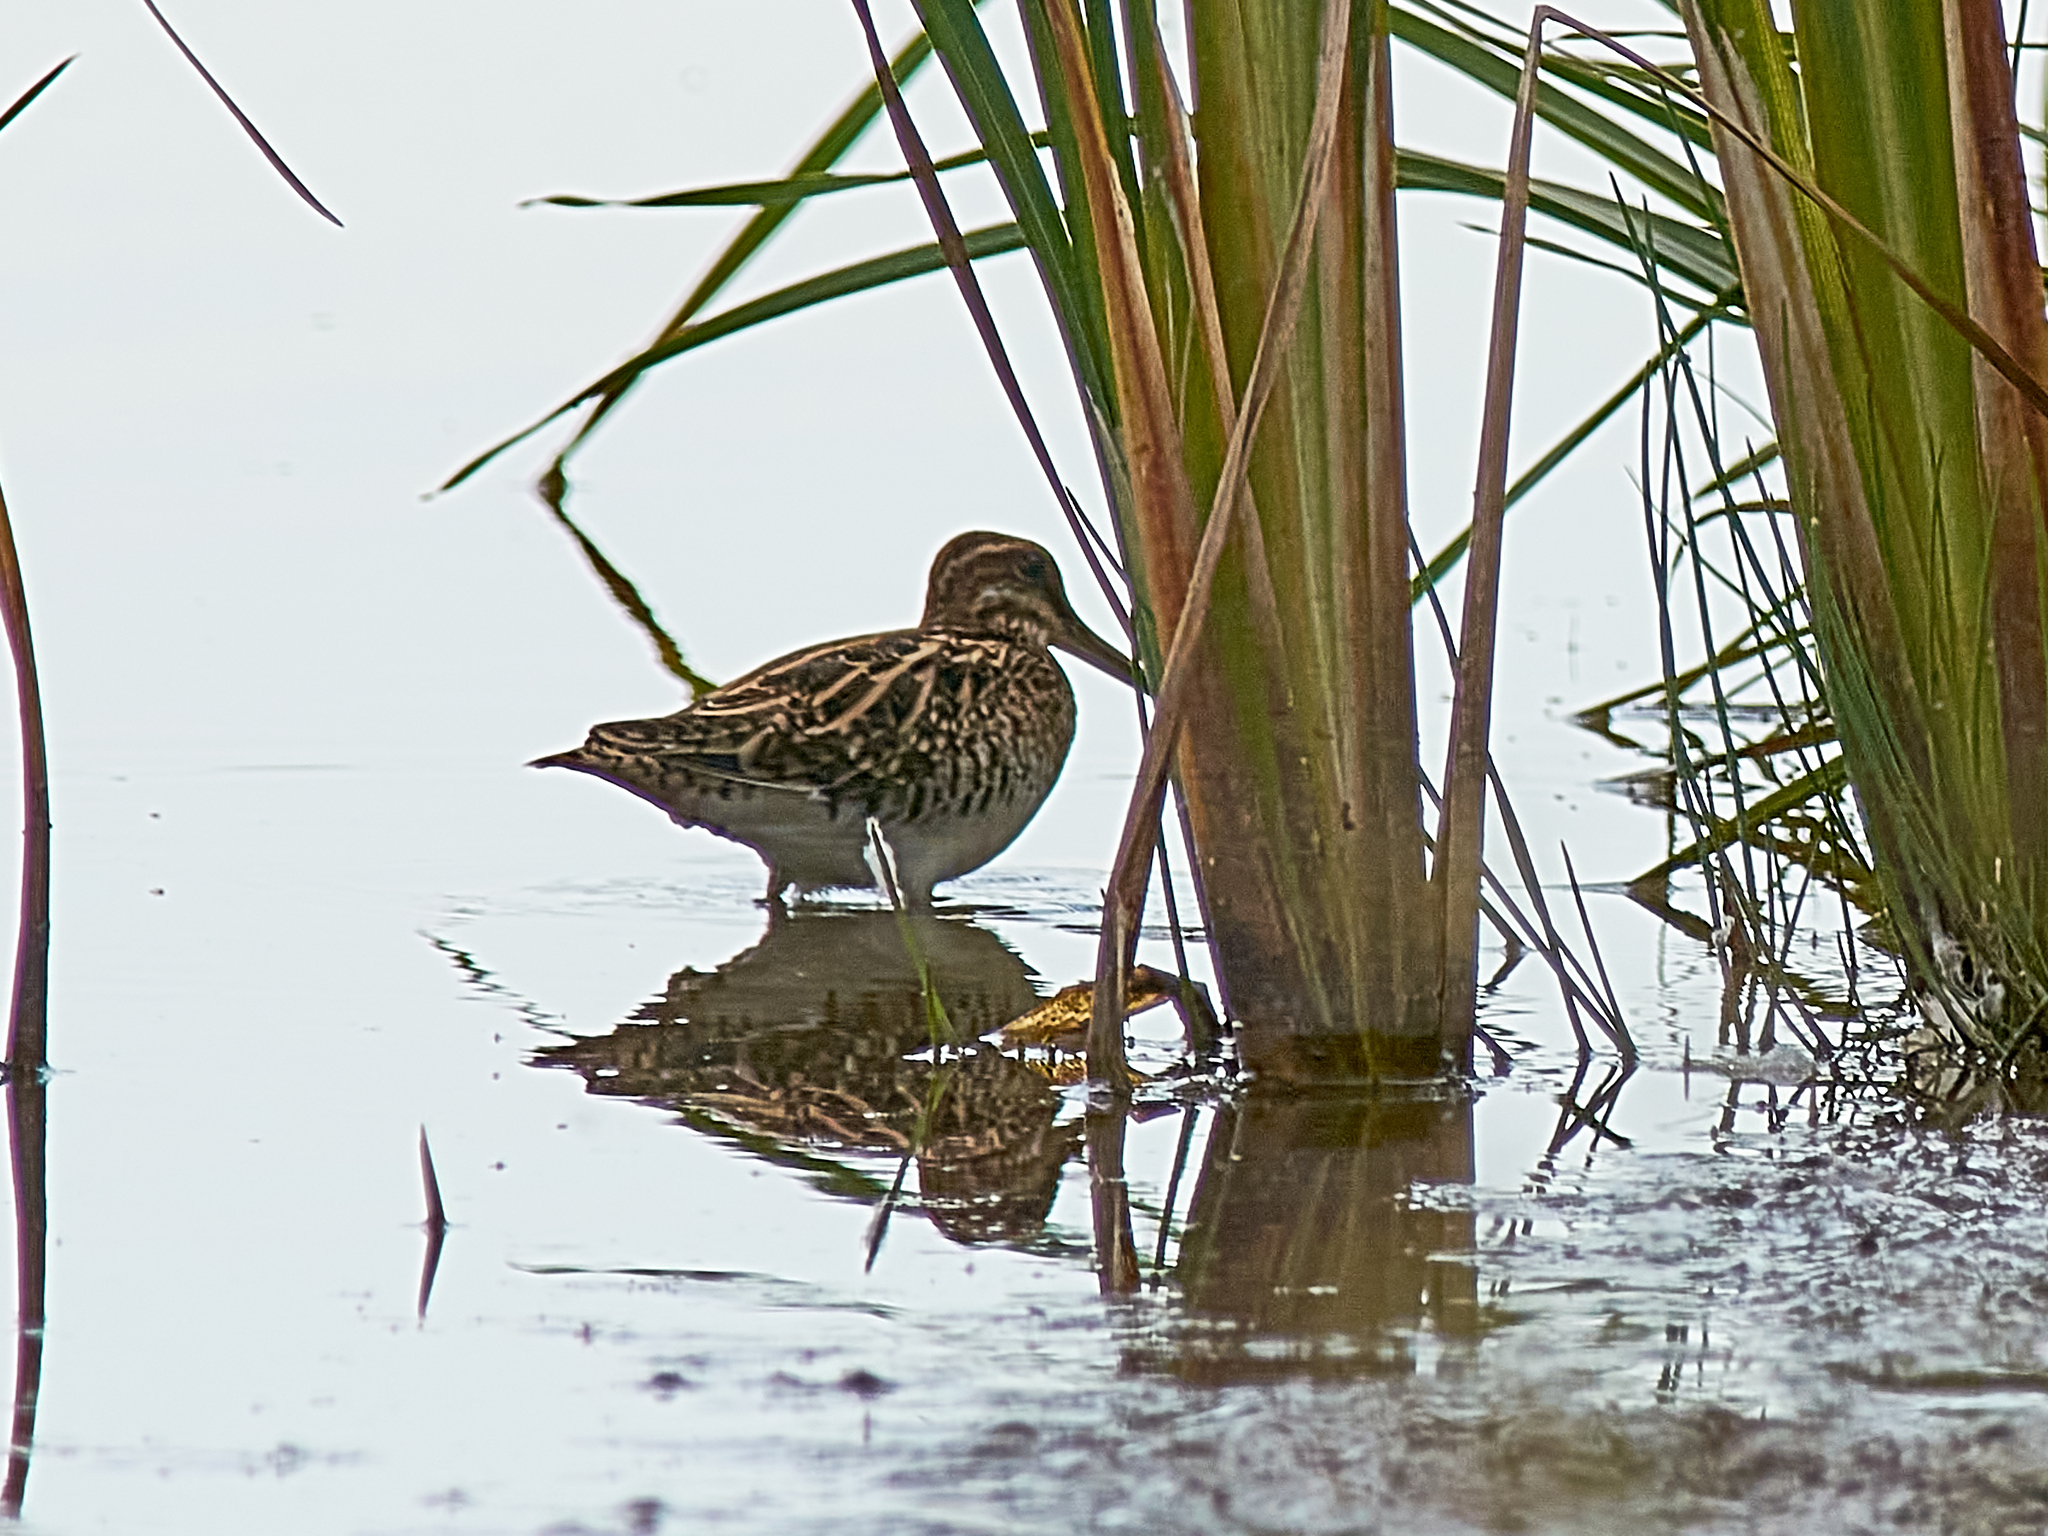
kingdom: Animalia
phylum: Chordata
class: Aves
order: Charadriiformes
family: Scolopacidae
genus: Gallinago
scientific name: Gallinago gallinago
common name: Common snipe
